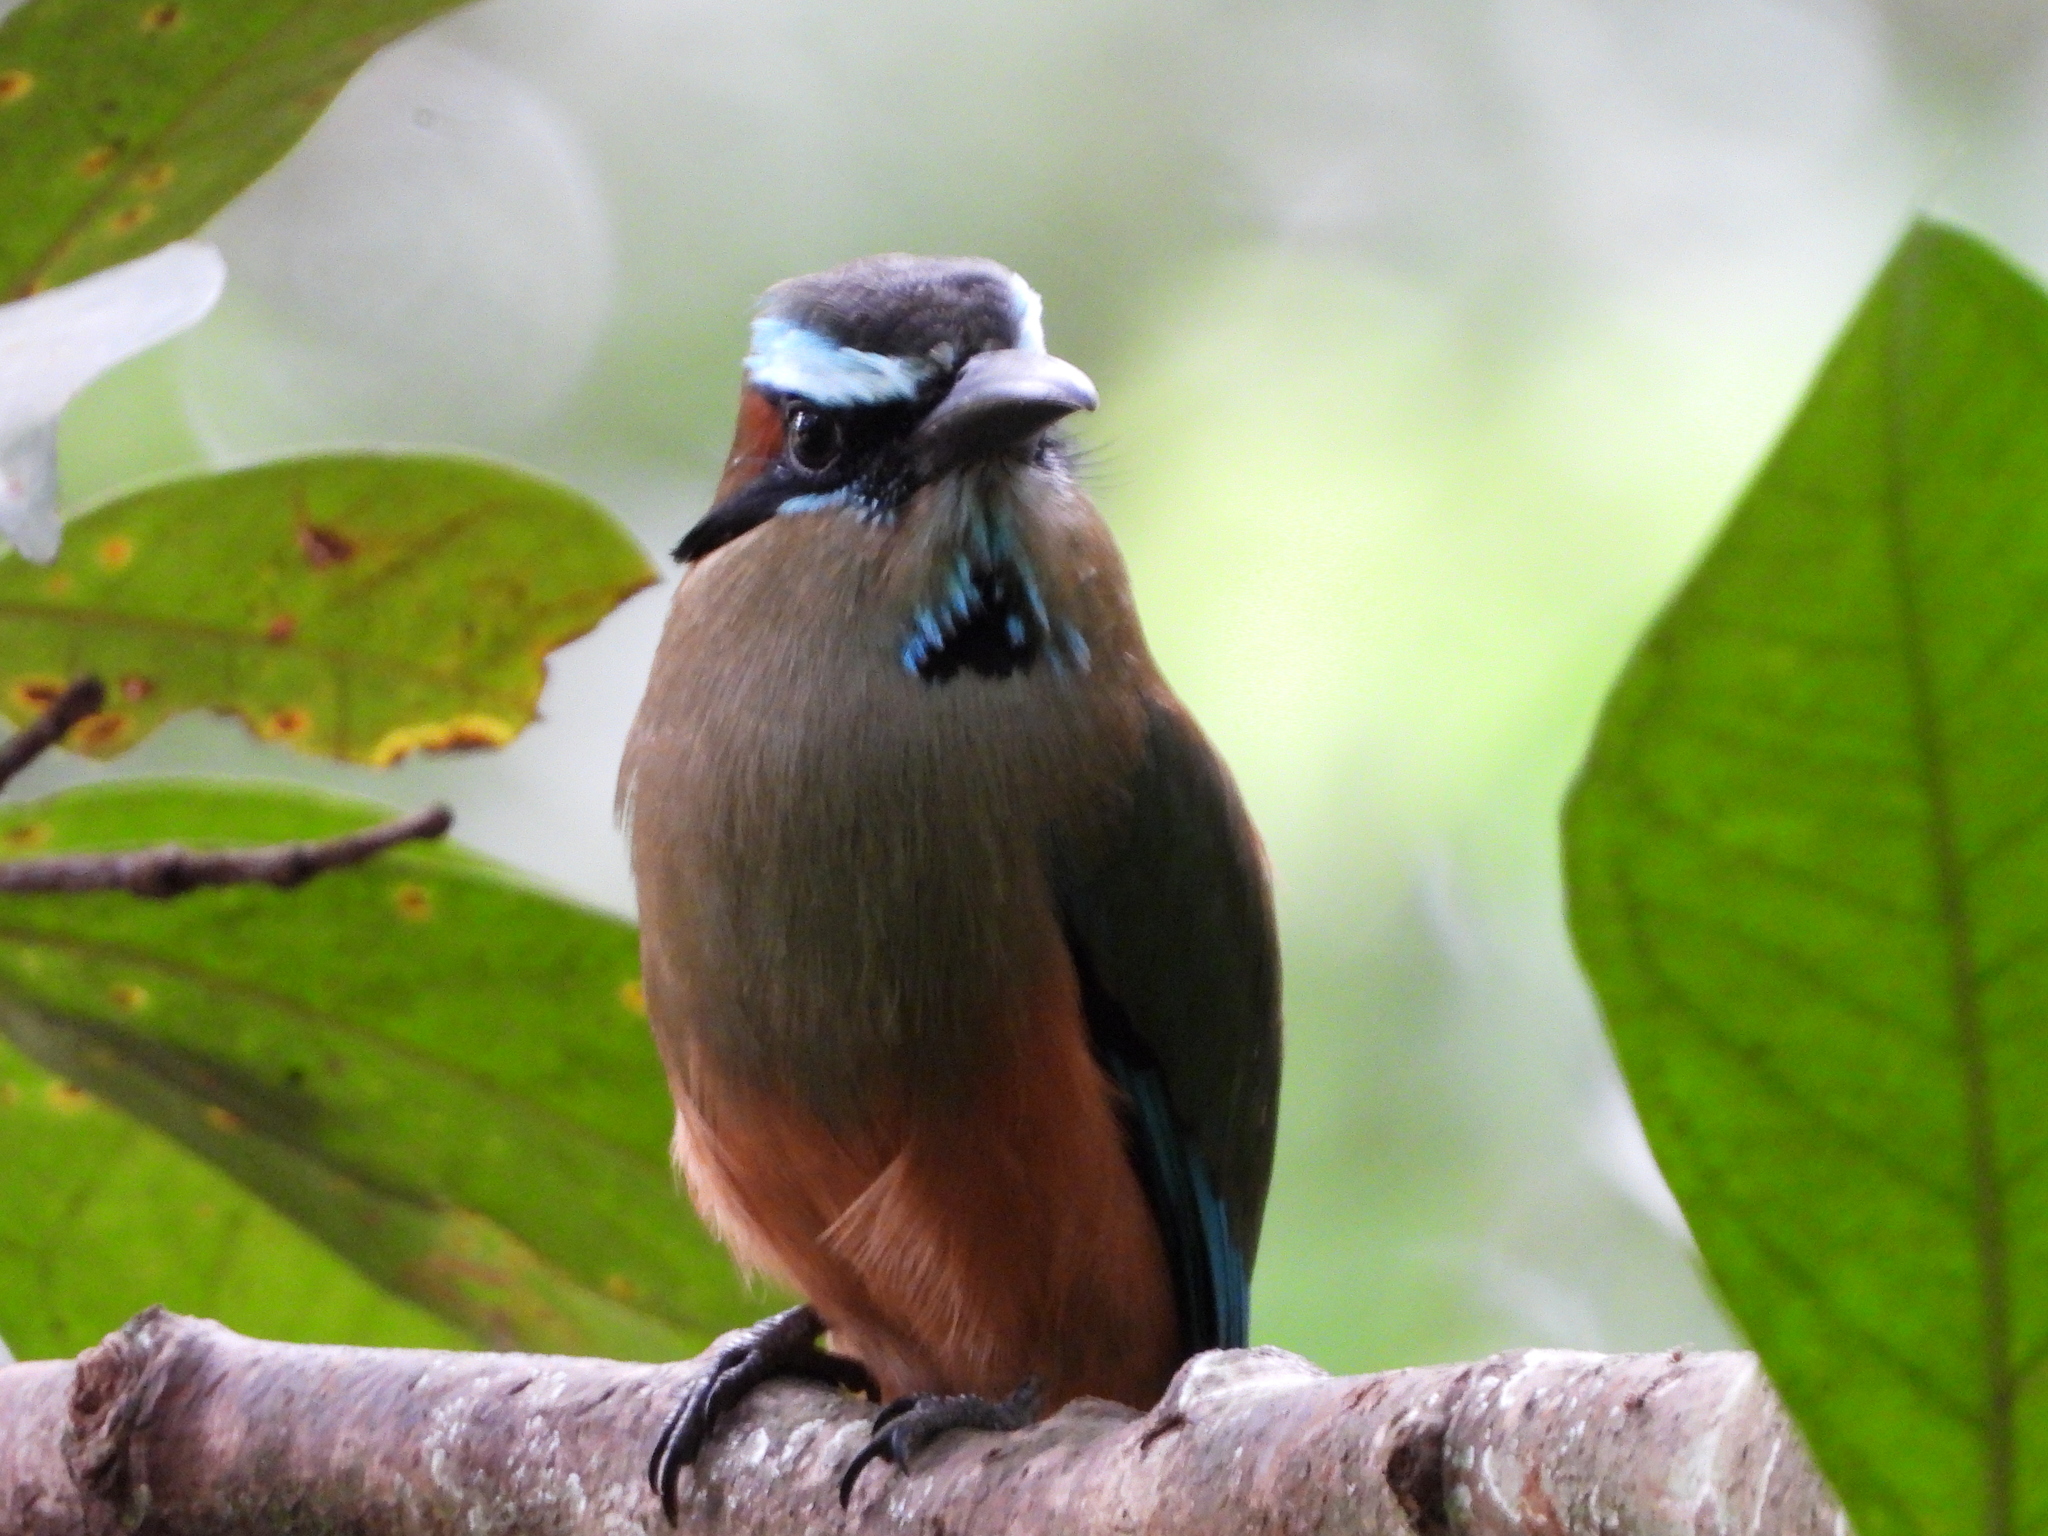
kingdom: Animalia
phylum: Chordata
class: Aves
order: Coraciiformes
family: Momotidae
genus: Eumomota
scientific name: Eumomota superciliosa
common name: Turquoise-browed motmot
